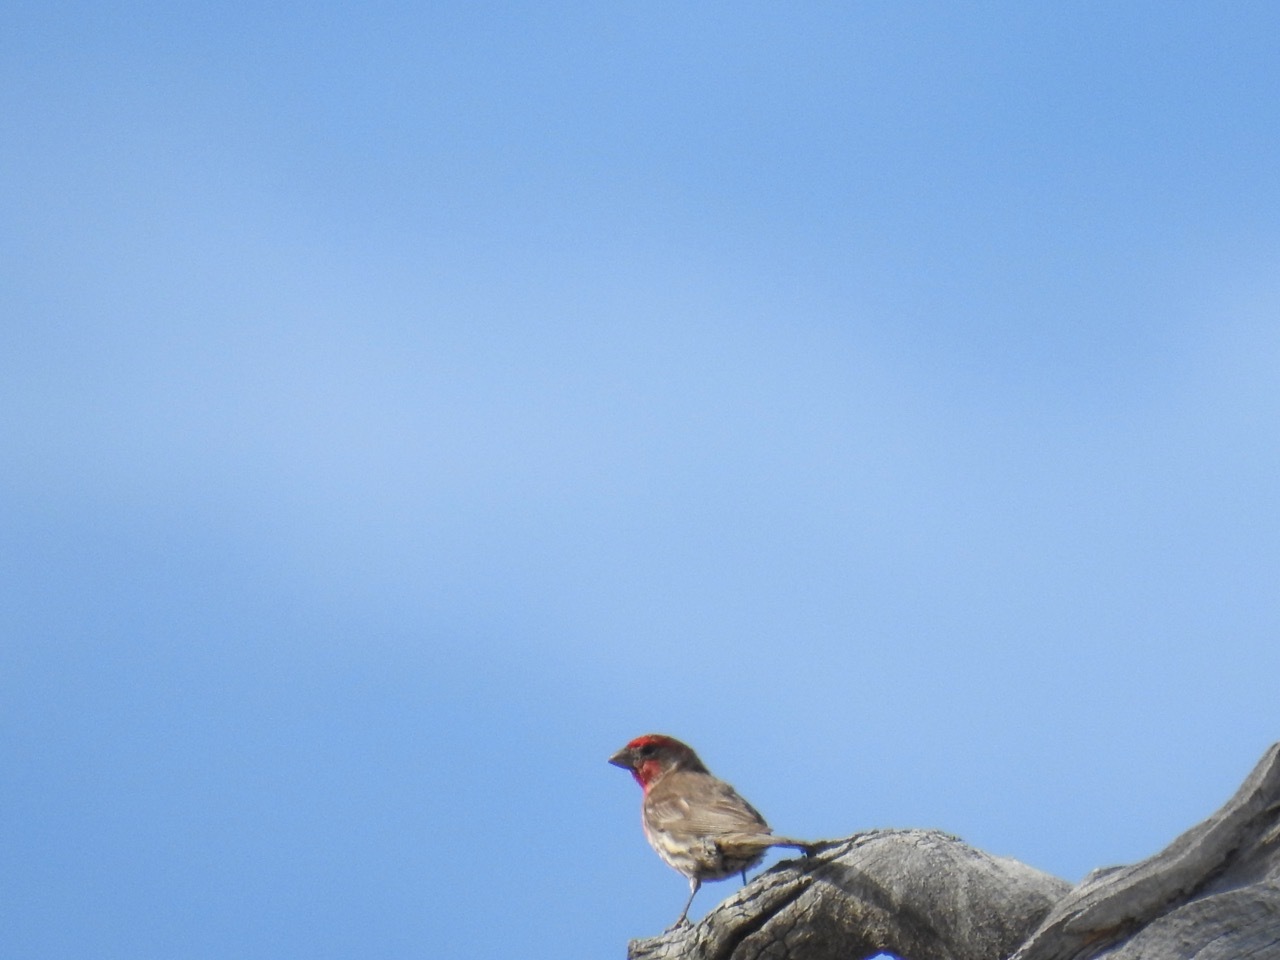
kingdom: Animalia
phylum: Chordata
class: Aves
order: Passeriformes
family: Fringillidae
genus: Haemorhous
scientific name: Haemorhous mexicanus
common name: House finch
